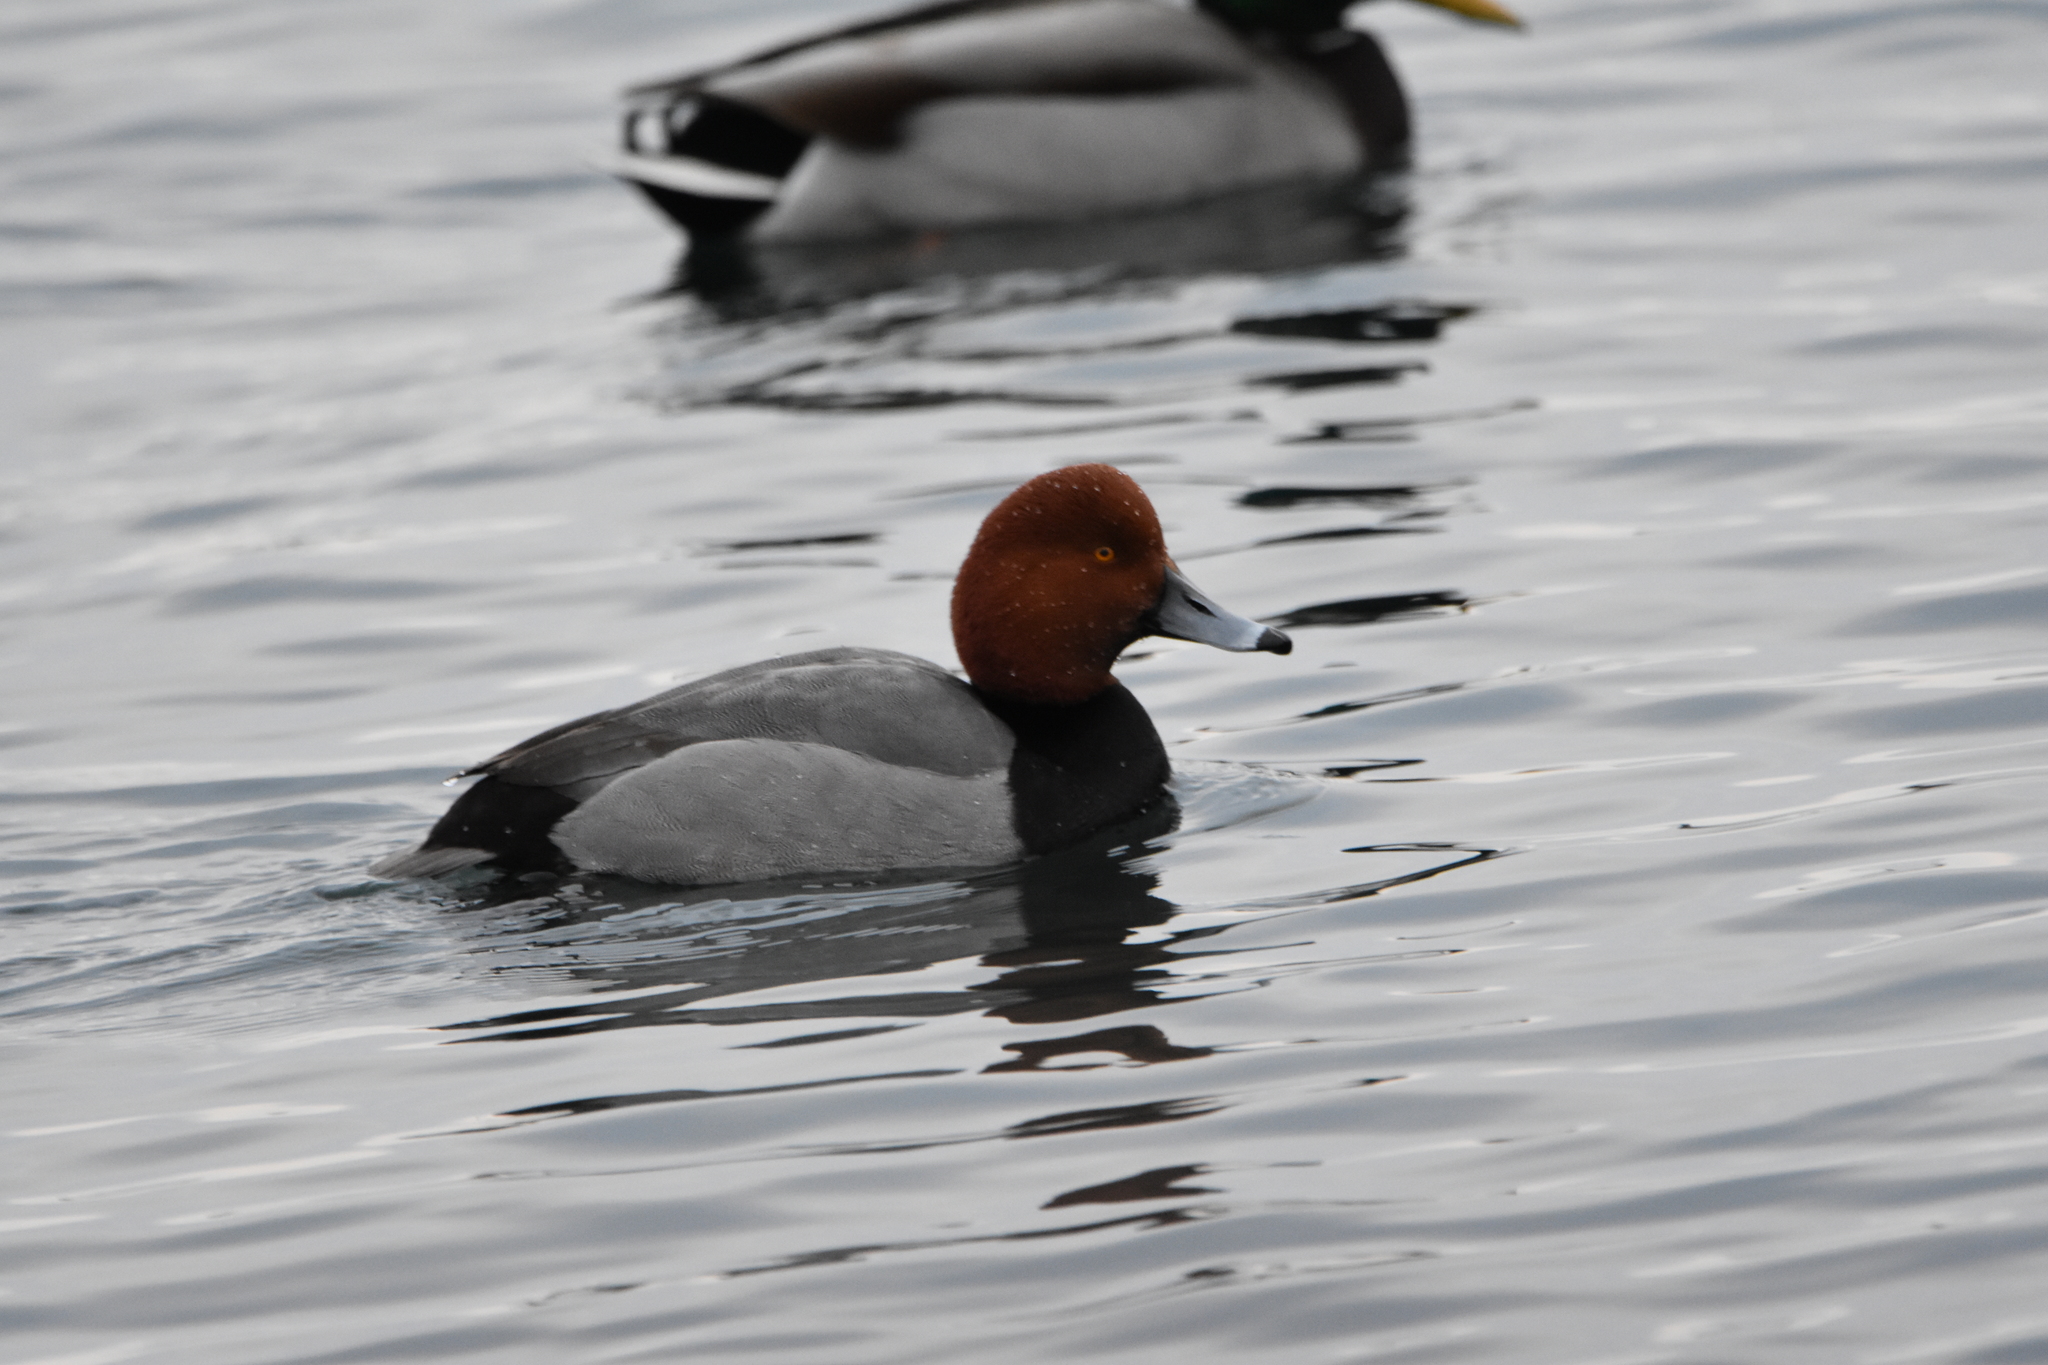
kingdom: Animalia
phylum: Chordata
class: Aves
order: Anseriformes
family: Anatidae
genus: Aythya
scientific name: Aythya americana
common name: Redhead
